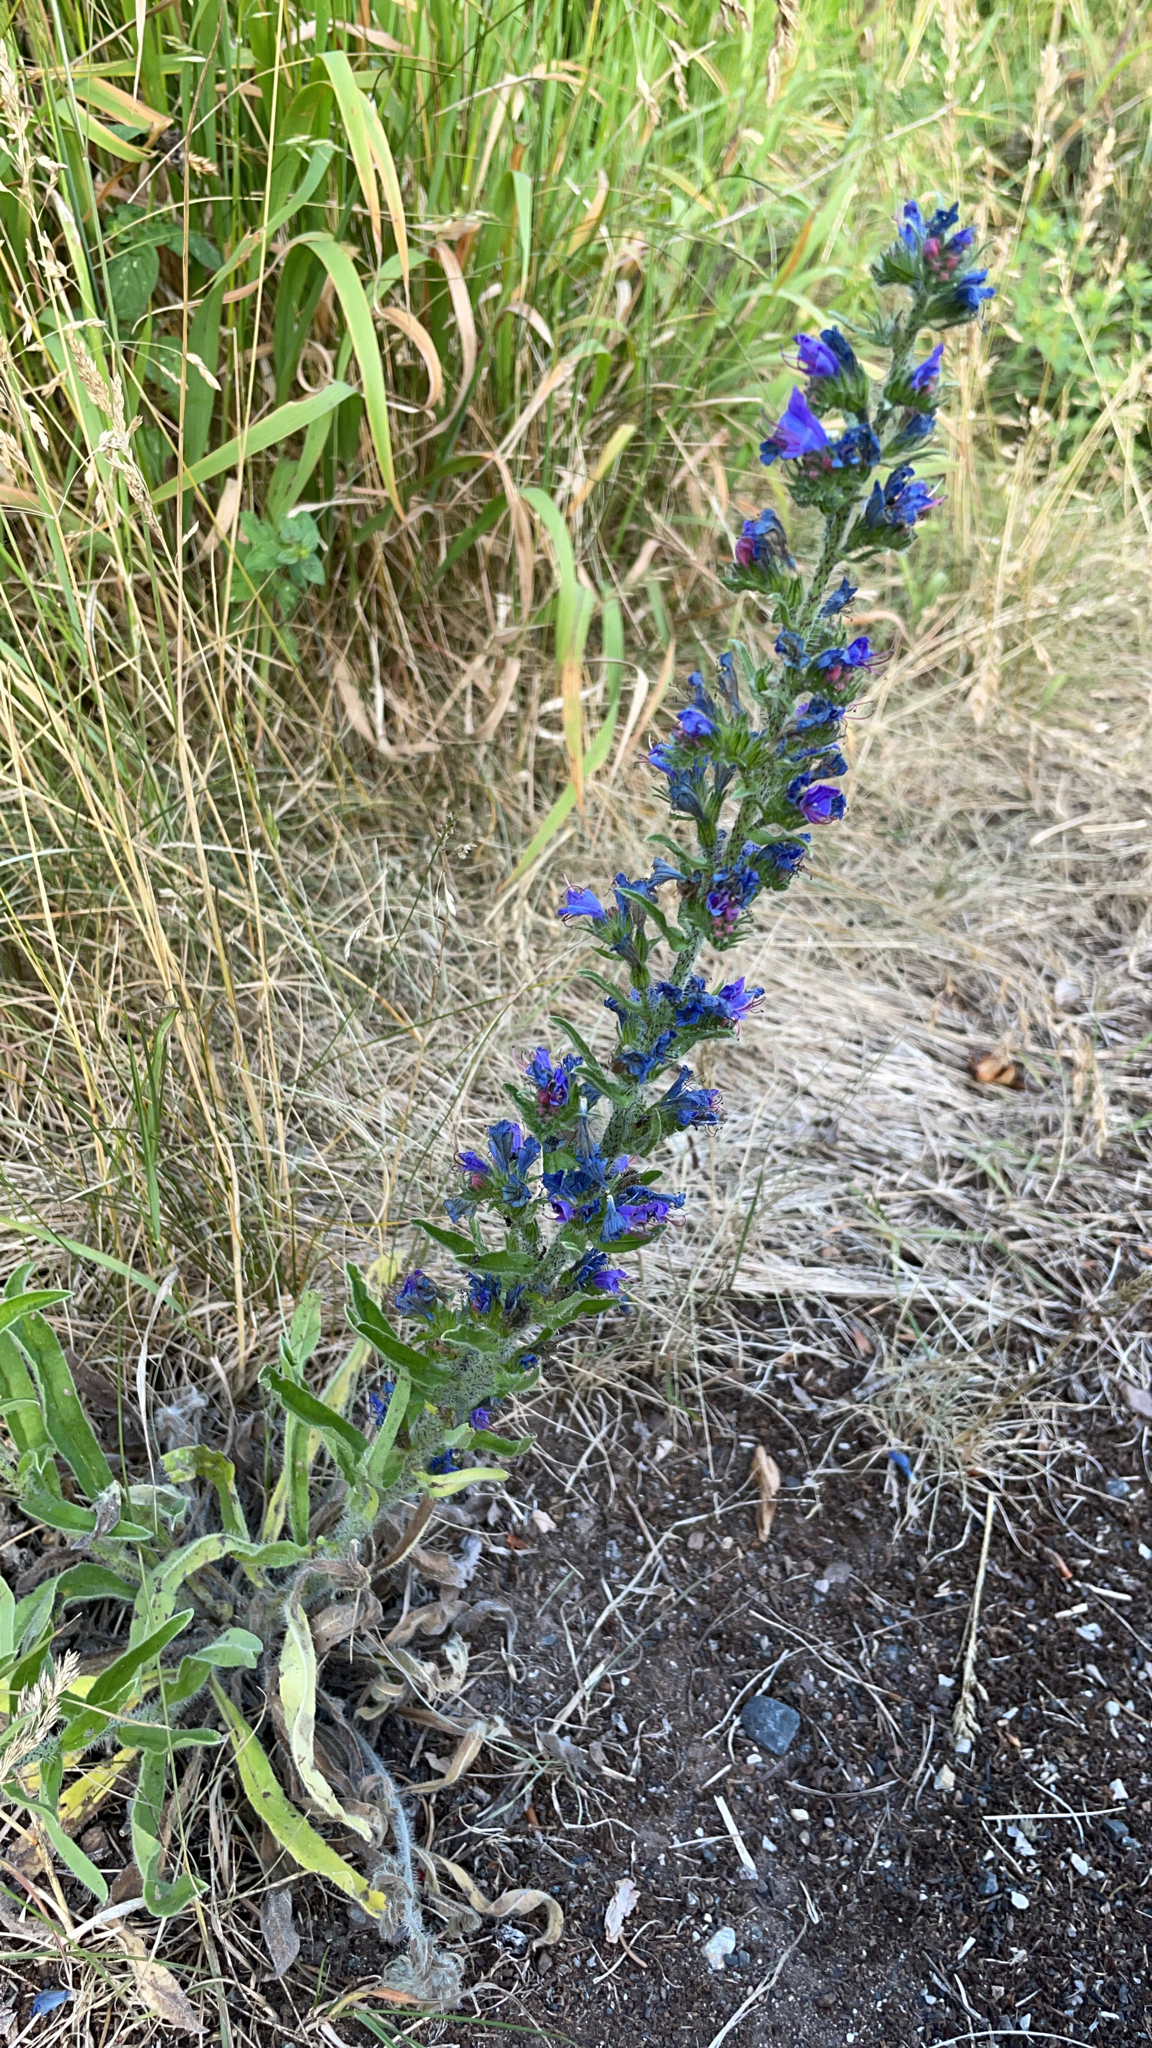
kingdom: Plantae
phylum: Tracheophyta
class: Magnoliopsida
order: Boraginales
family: Boraginaceae
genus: Echium
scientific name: Echium vulgare
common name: Common viper's bugloss
